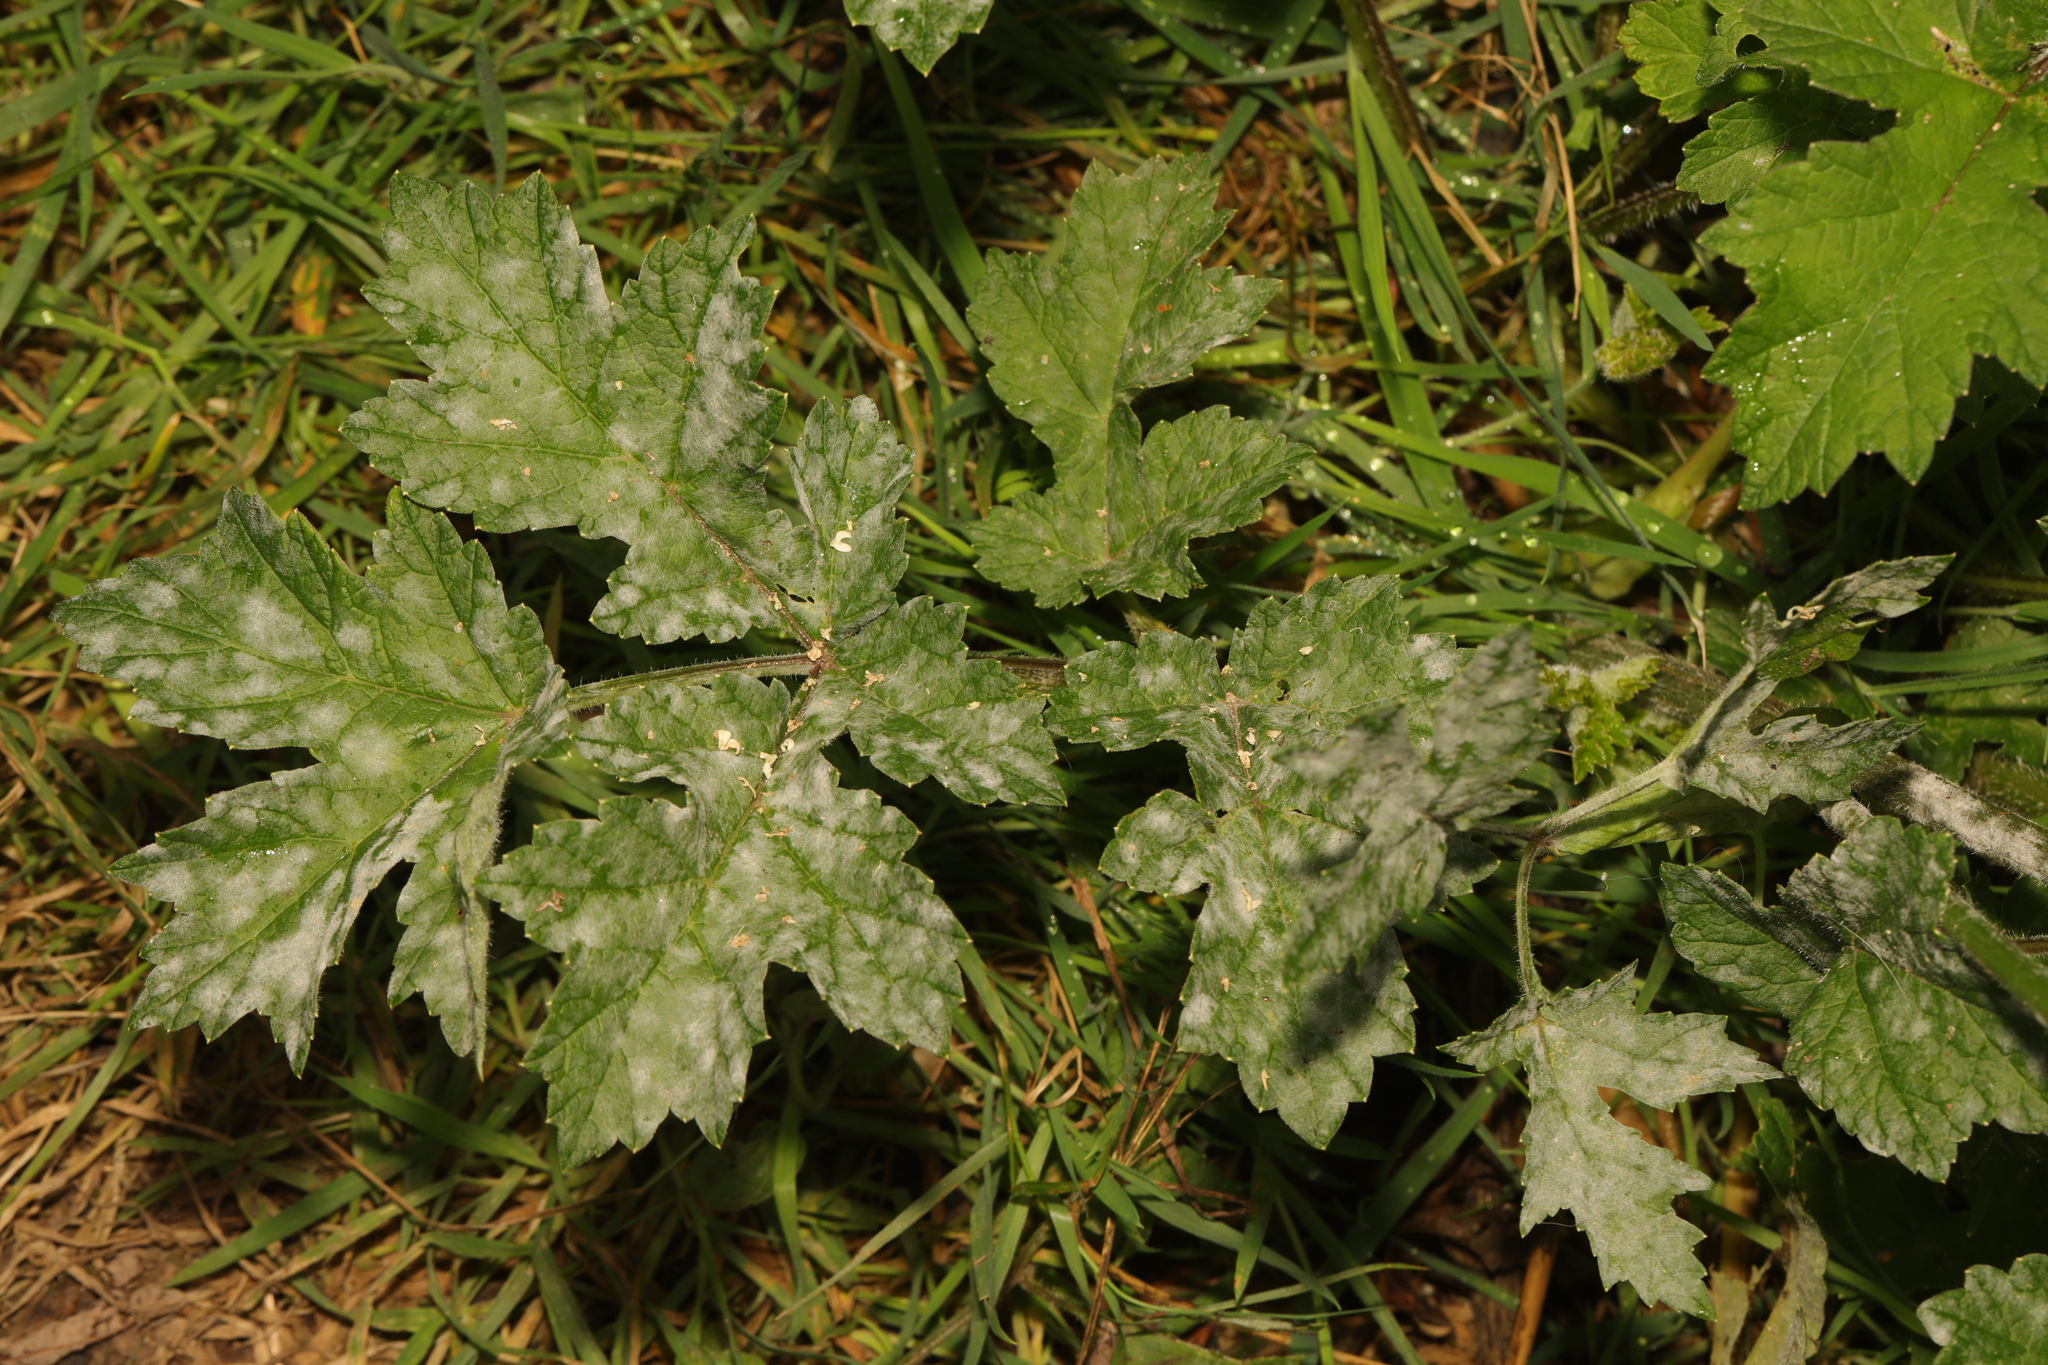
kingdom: Plantae
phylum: Tracheophyta
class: Magnoliopsida
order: Apiales
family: Apiaceae
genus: Heracleum
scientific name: Heracleum sphondylium
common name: Hogweed
